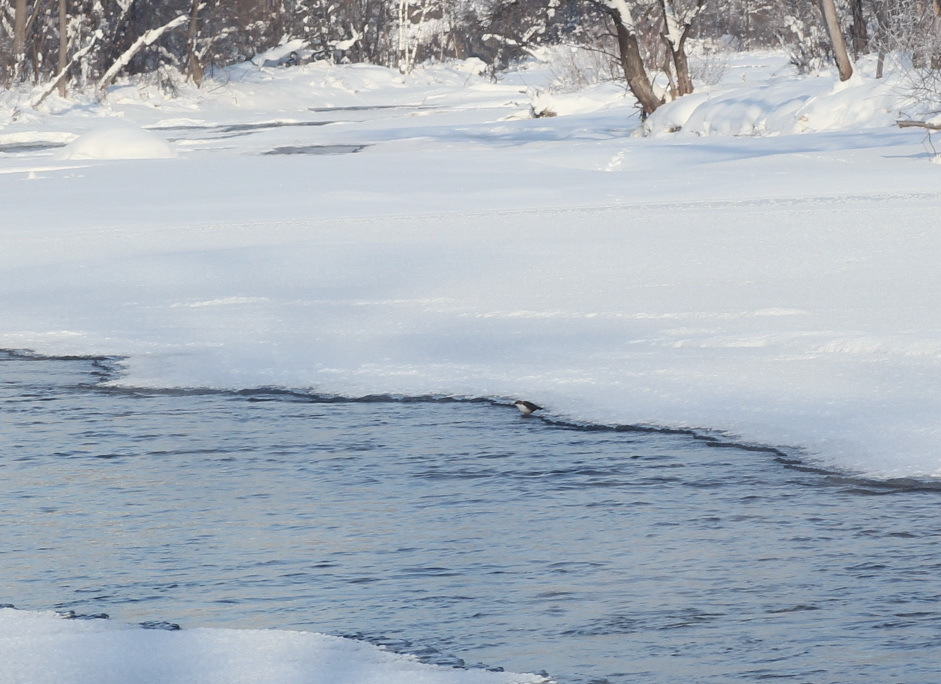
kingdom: Animalia
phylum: Chordata
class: Aves
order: Passeriformes
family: Cinclidae
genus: Cinclus
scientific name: Cinclus cinclus
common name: White-throated dipper
